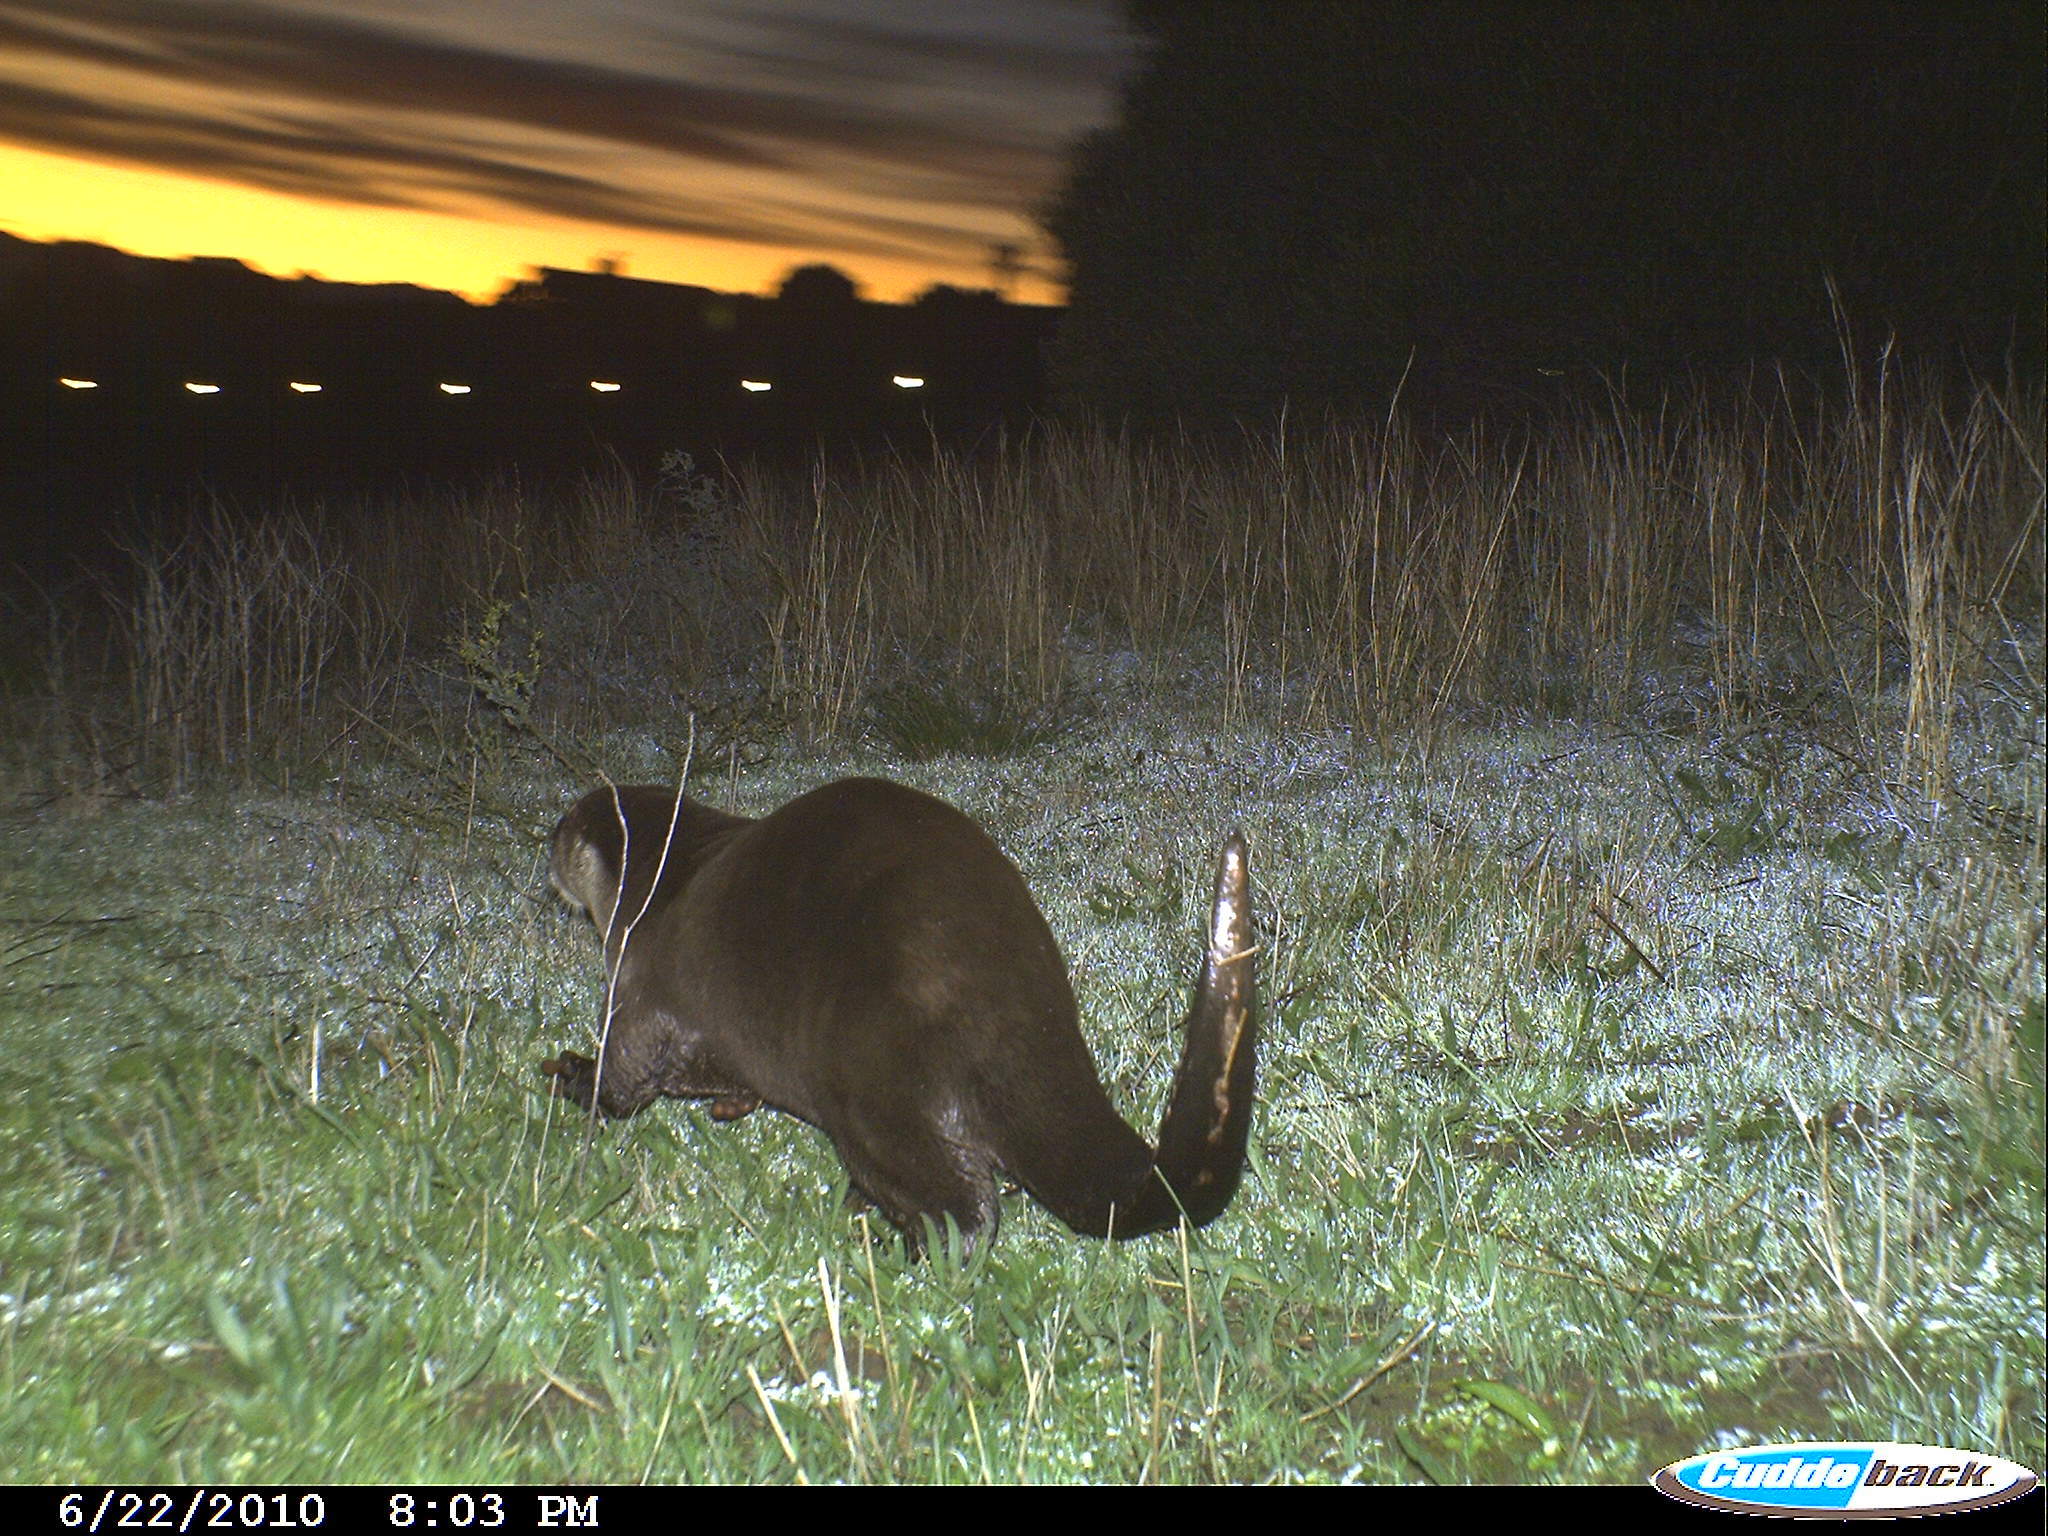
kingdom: Animalia
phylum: Chordata
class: Mammalia
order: Carnivora
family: Mustelidae
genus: Aonyx
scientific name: Aonyx capensis
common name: African clawless otter
